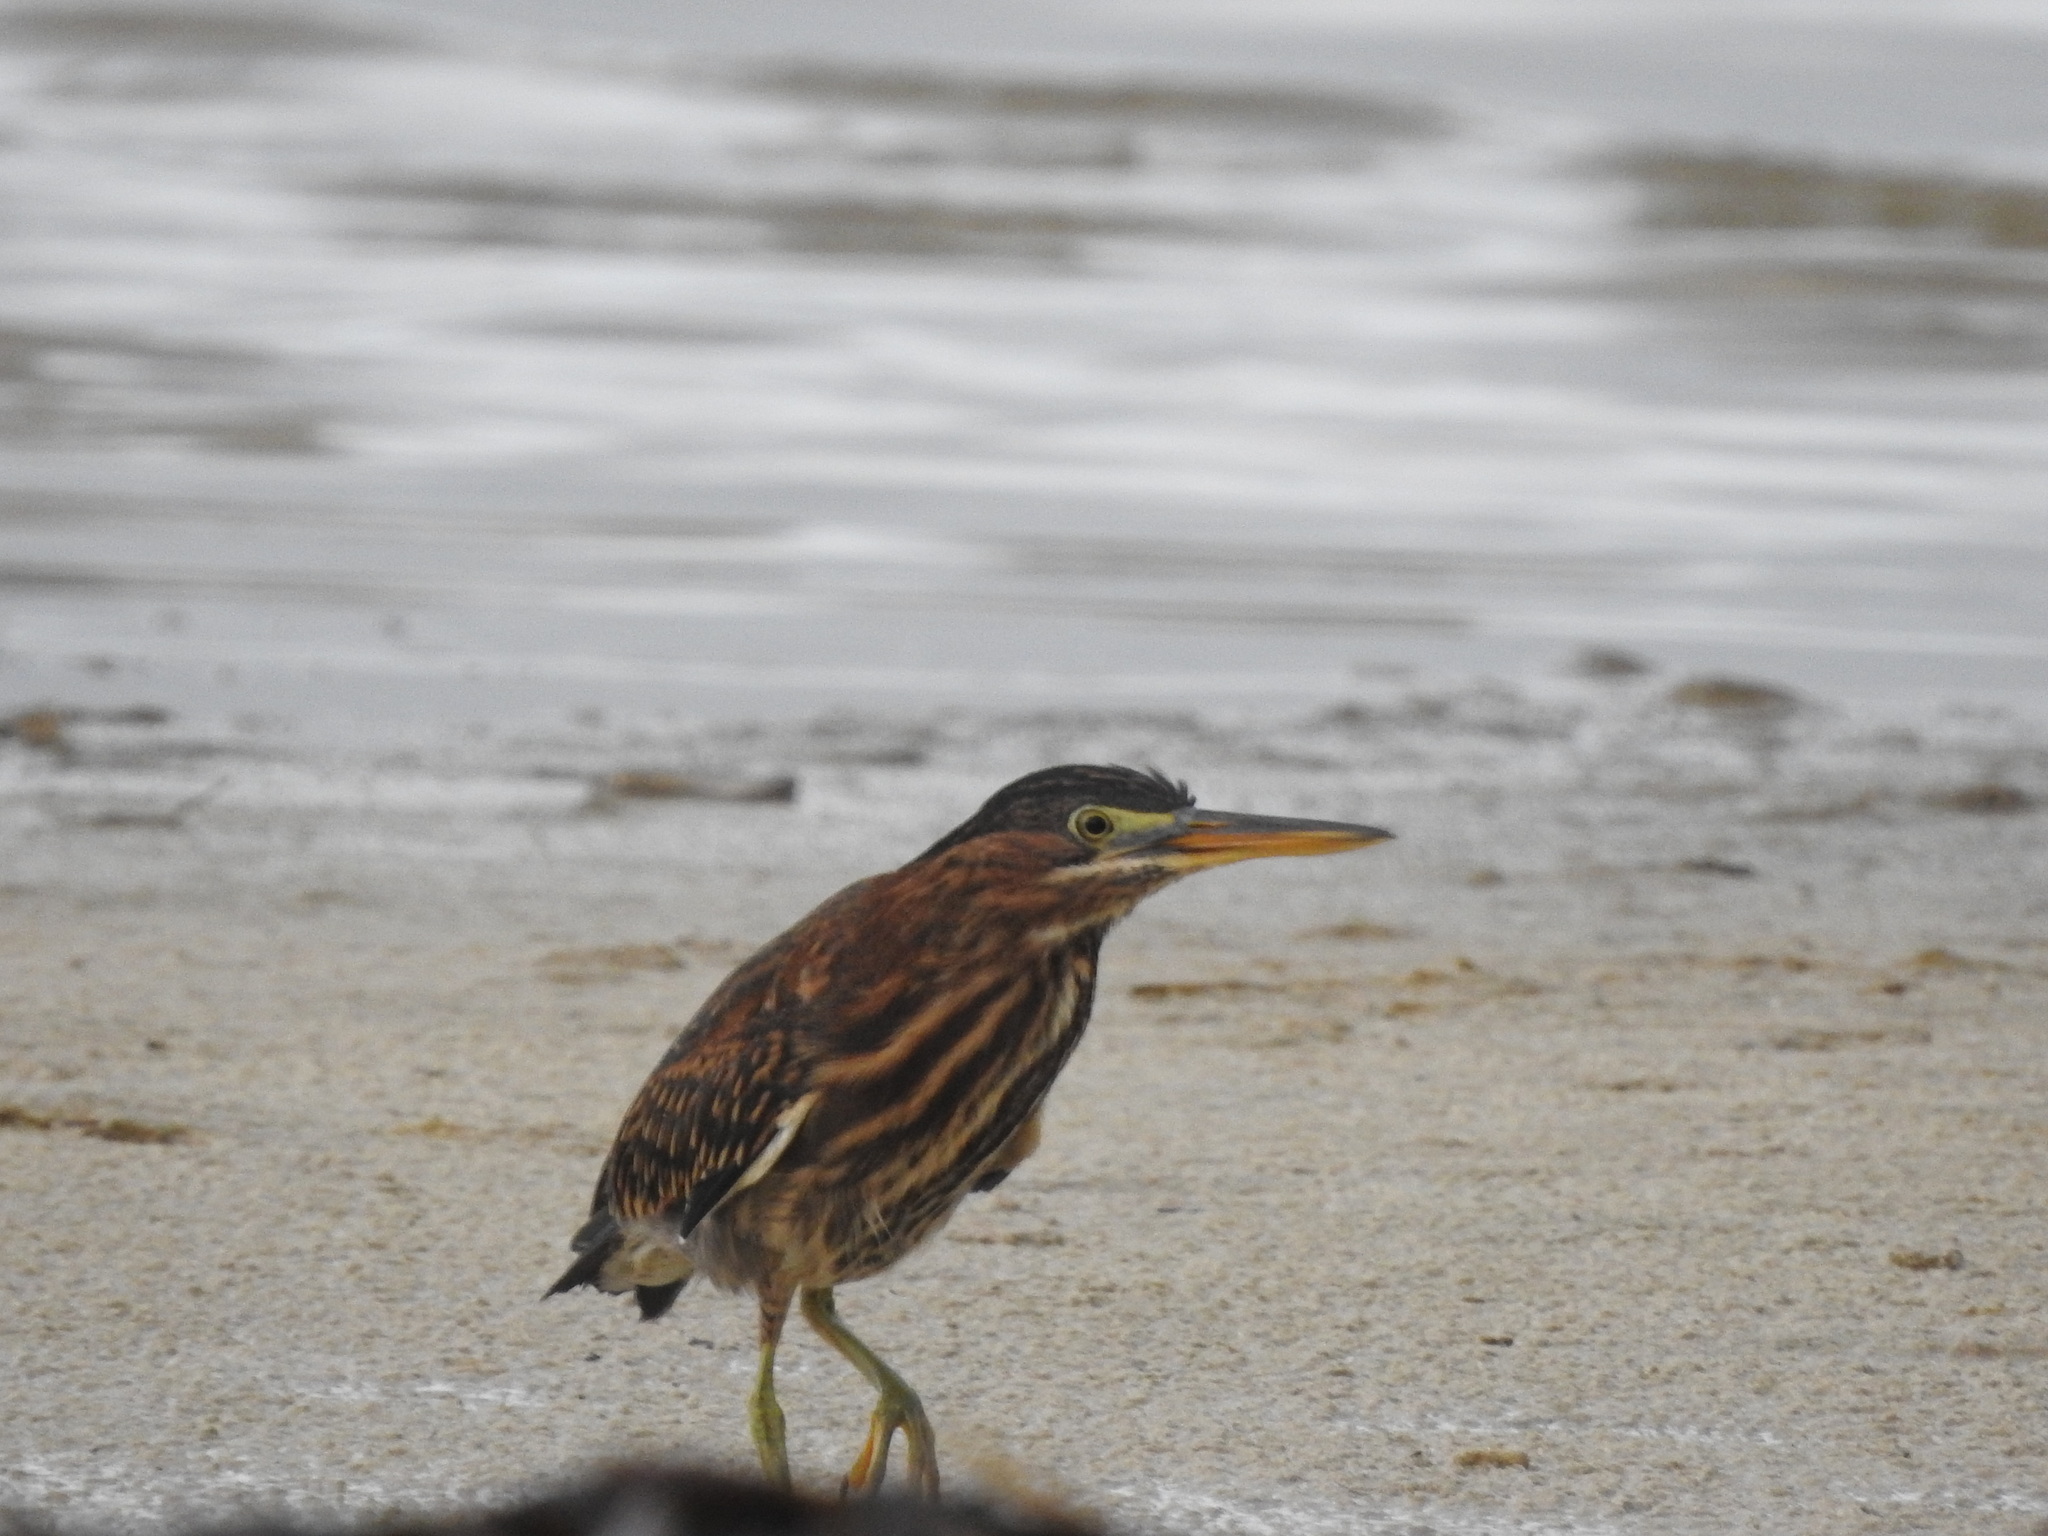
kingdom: Animalia
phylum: Chordata
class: Aves
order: Pelecaniformes
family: Ardeidae
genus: Butorides
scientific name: Butorides virescens
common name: Green heron
